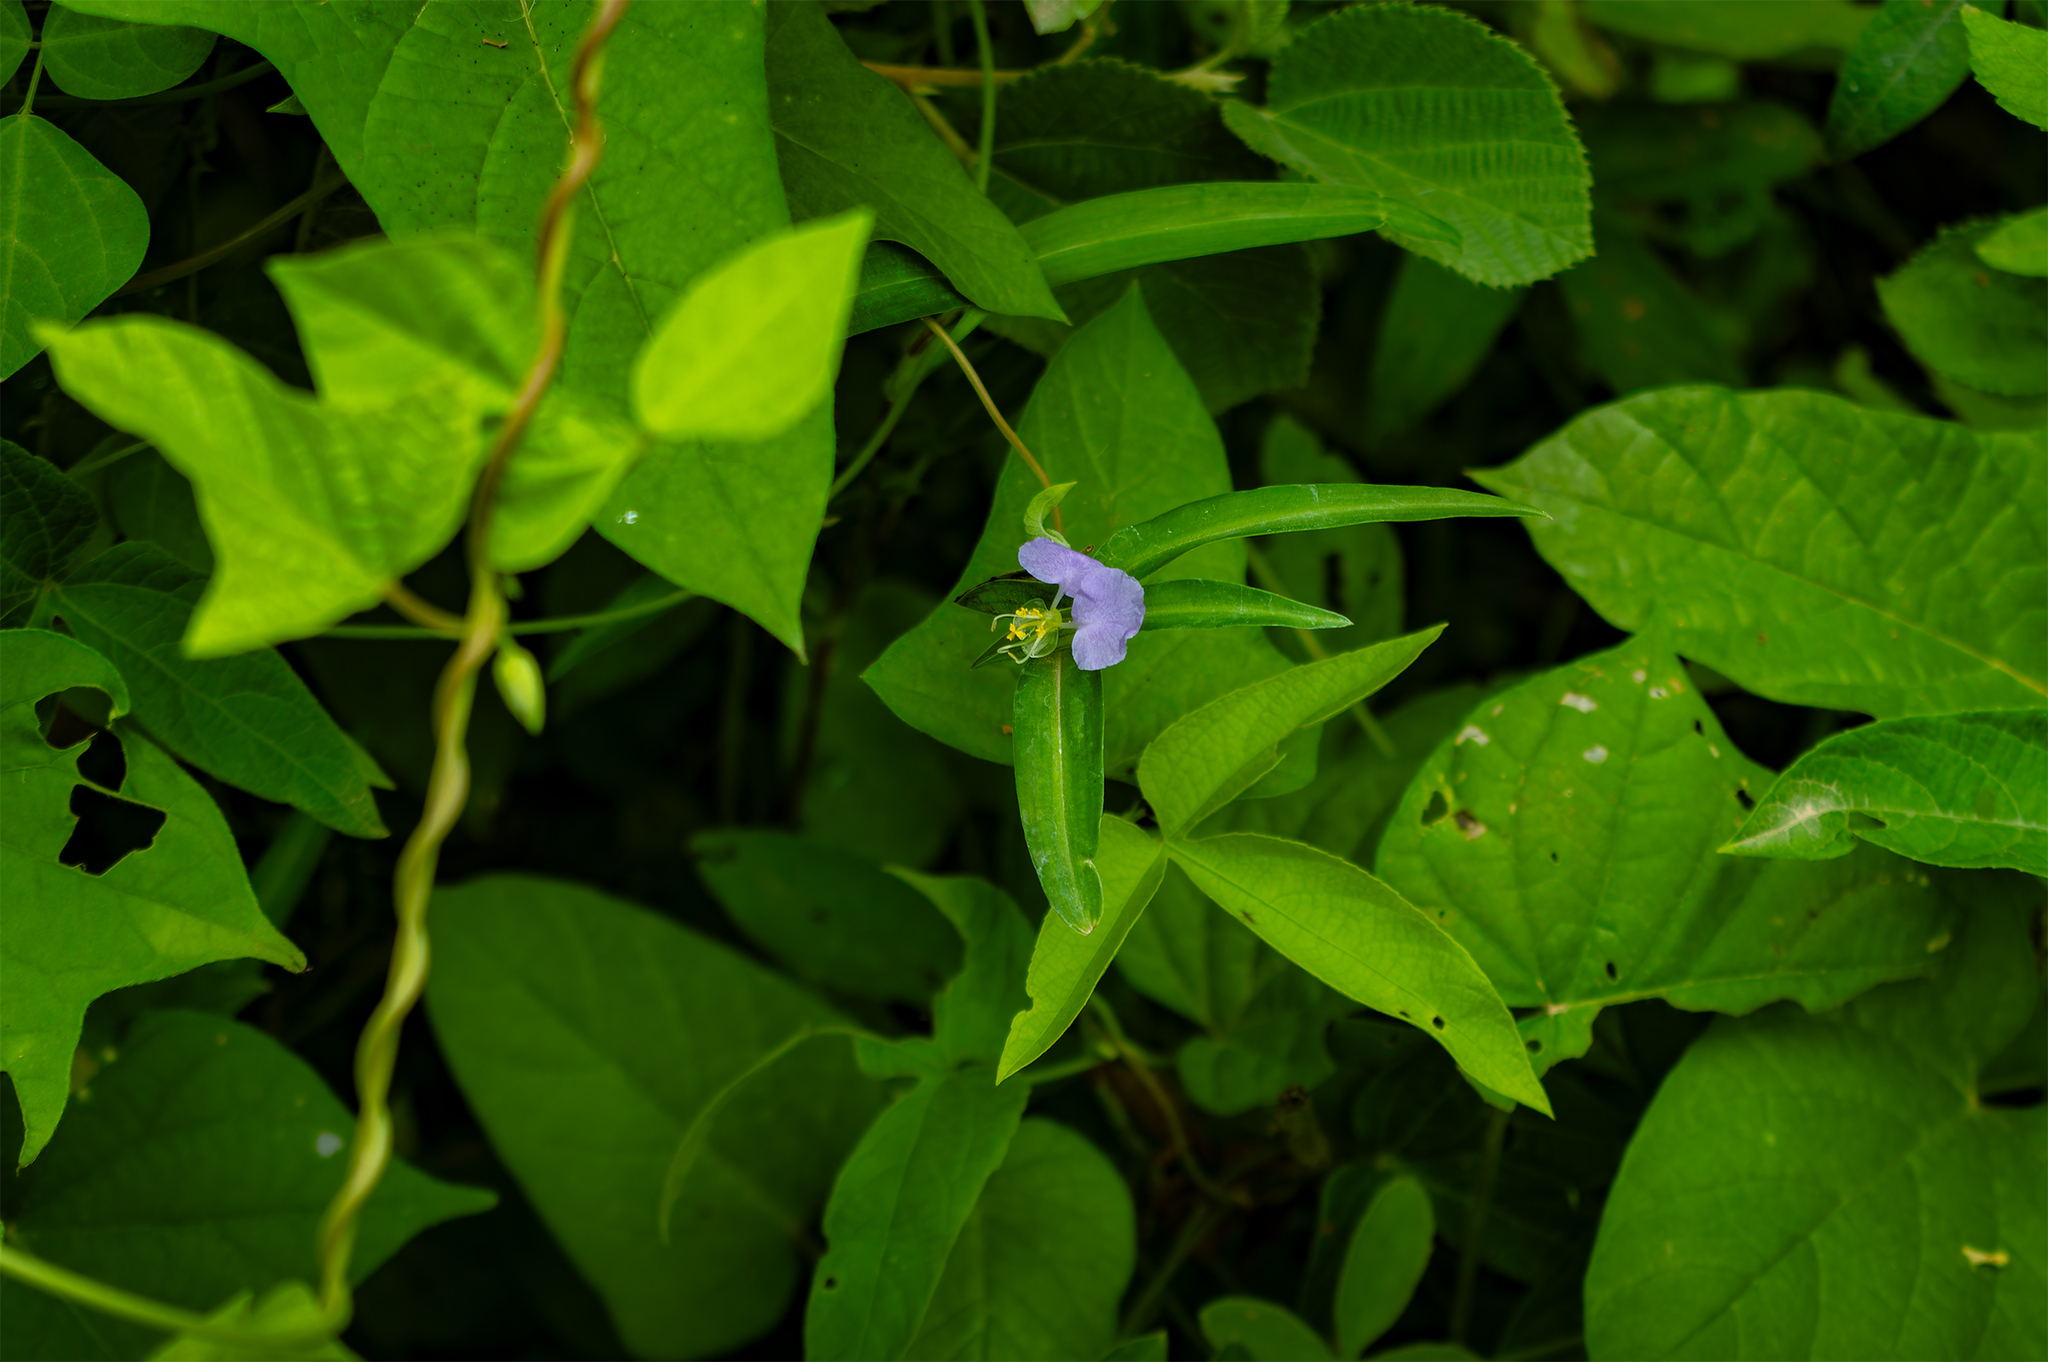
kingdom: Plantae
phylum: Tracheophyta
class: Liliopsida
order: Commelinales
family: Commelinaceae
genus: Commelina
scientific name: Commelina undulata
